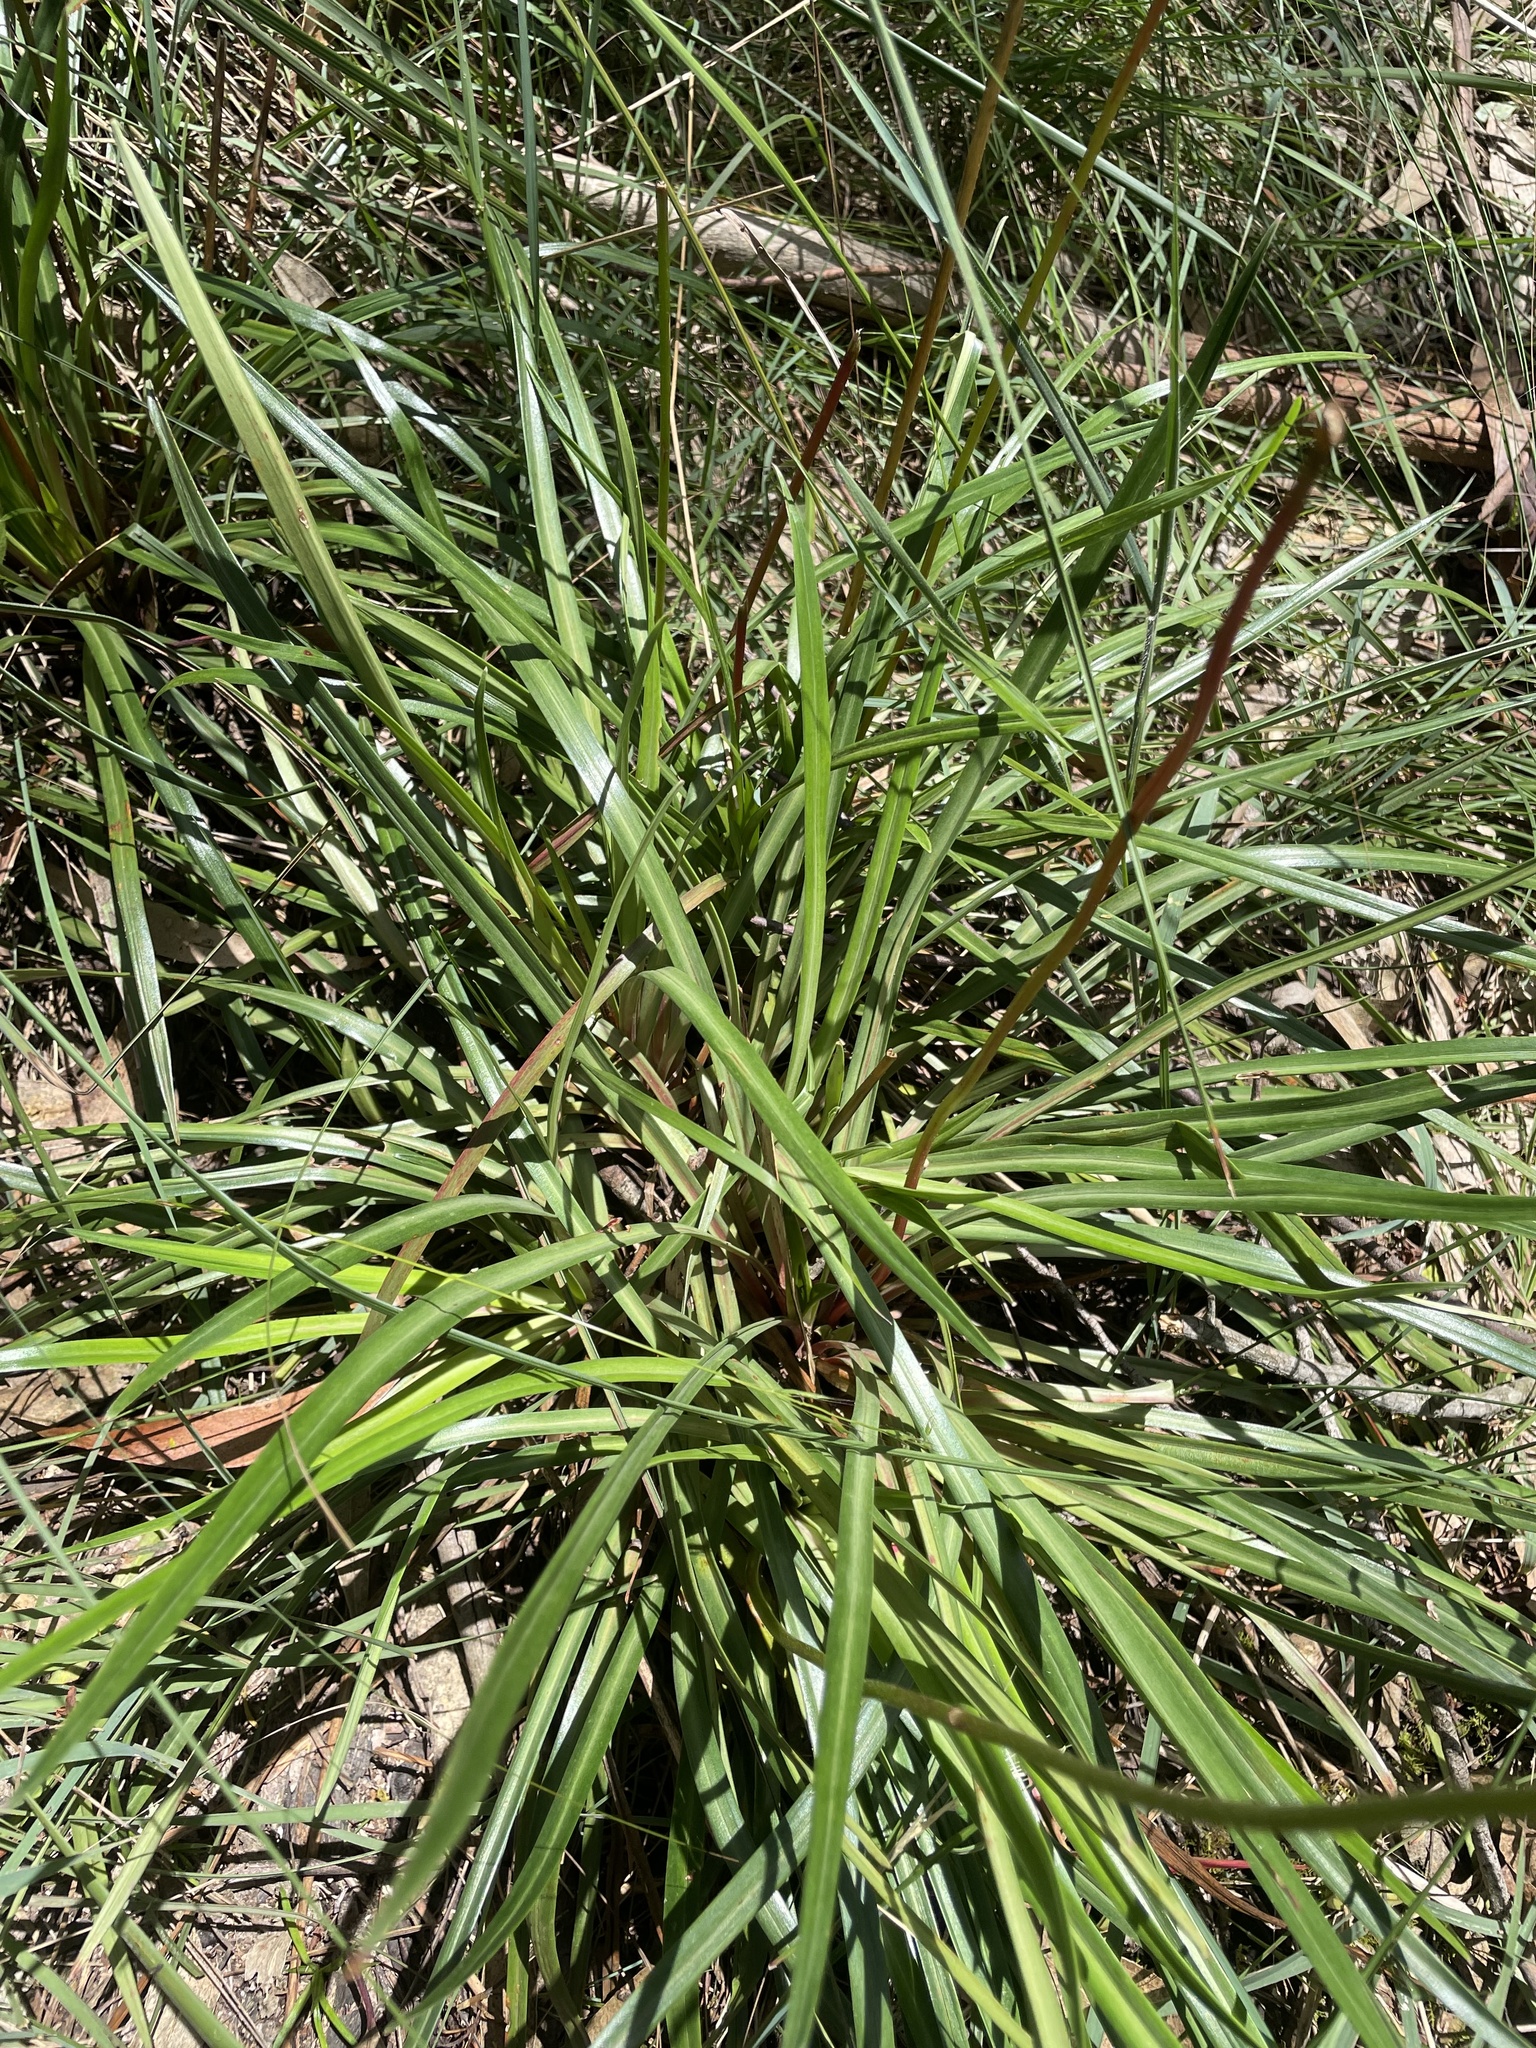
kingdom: Plantae
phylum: Tracheophyta
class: Magnoliopsida
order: Asterales
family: Stylidiaceae
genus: Stylidium
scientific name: Stylidium armeria
